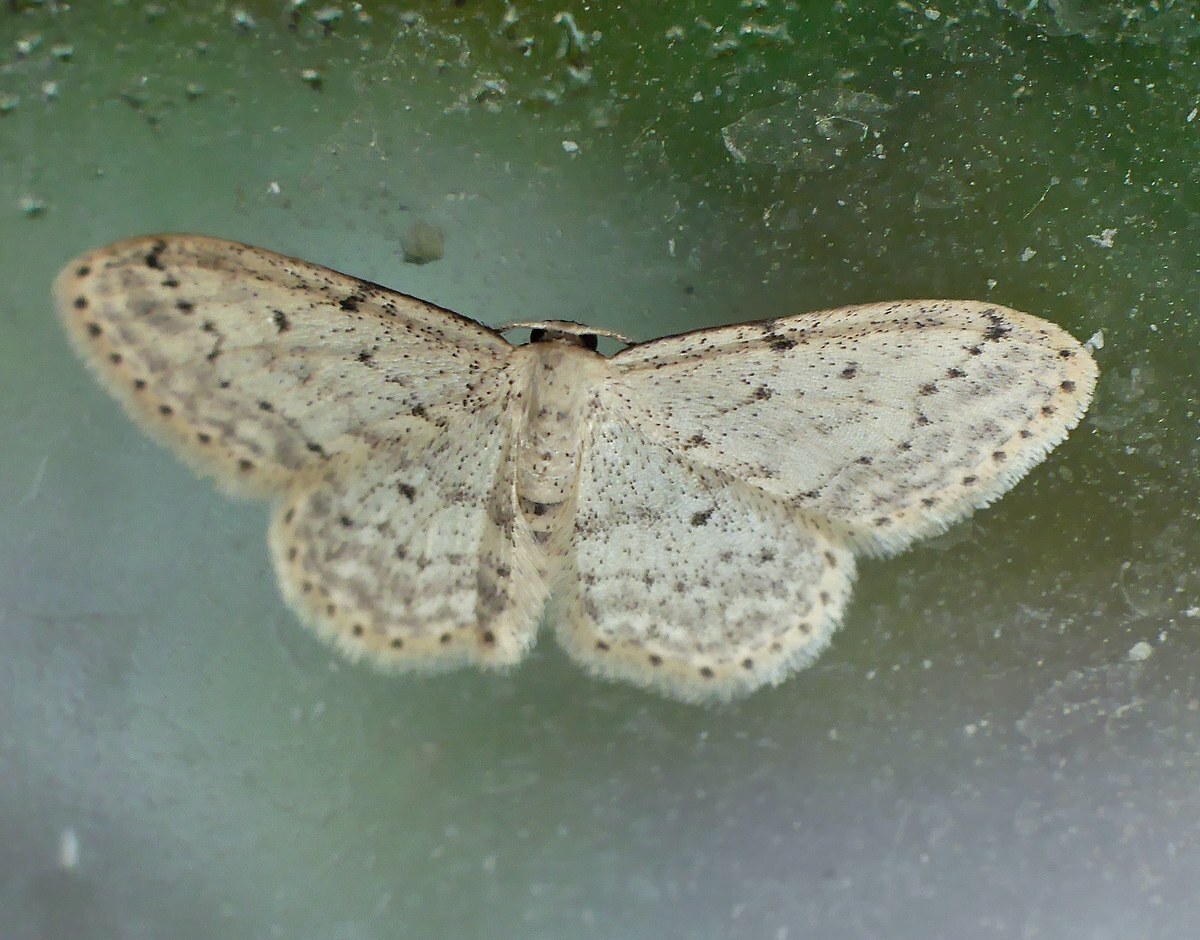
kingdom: Animalia
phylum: Arthropoda
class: Insecta
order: Lepidoptera
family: Geometridae
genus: Idaea
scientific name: Idaea seriata
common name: Small dusty wave
